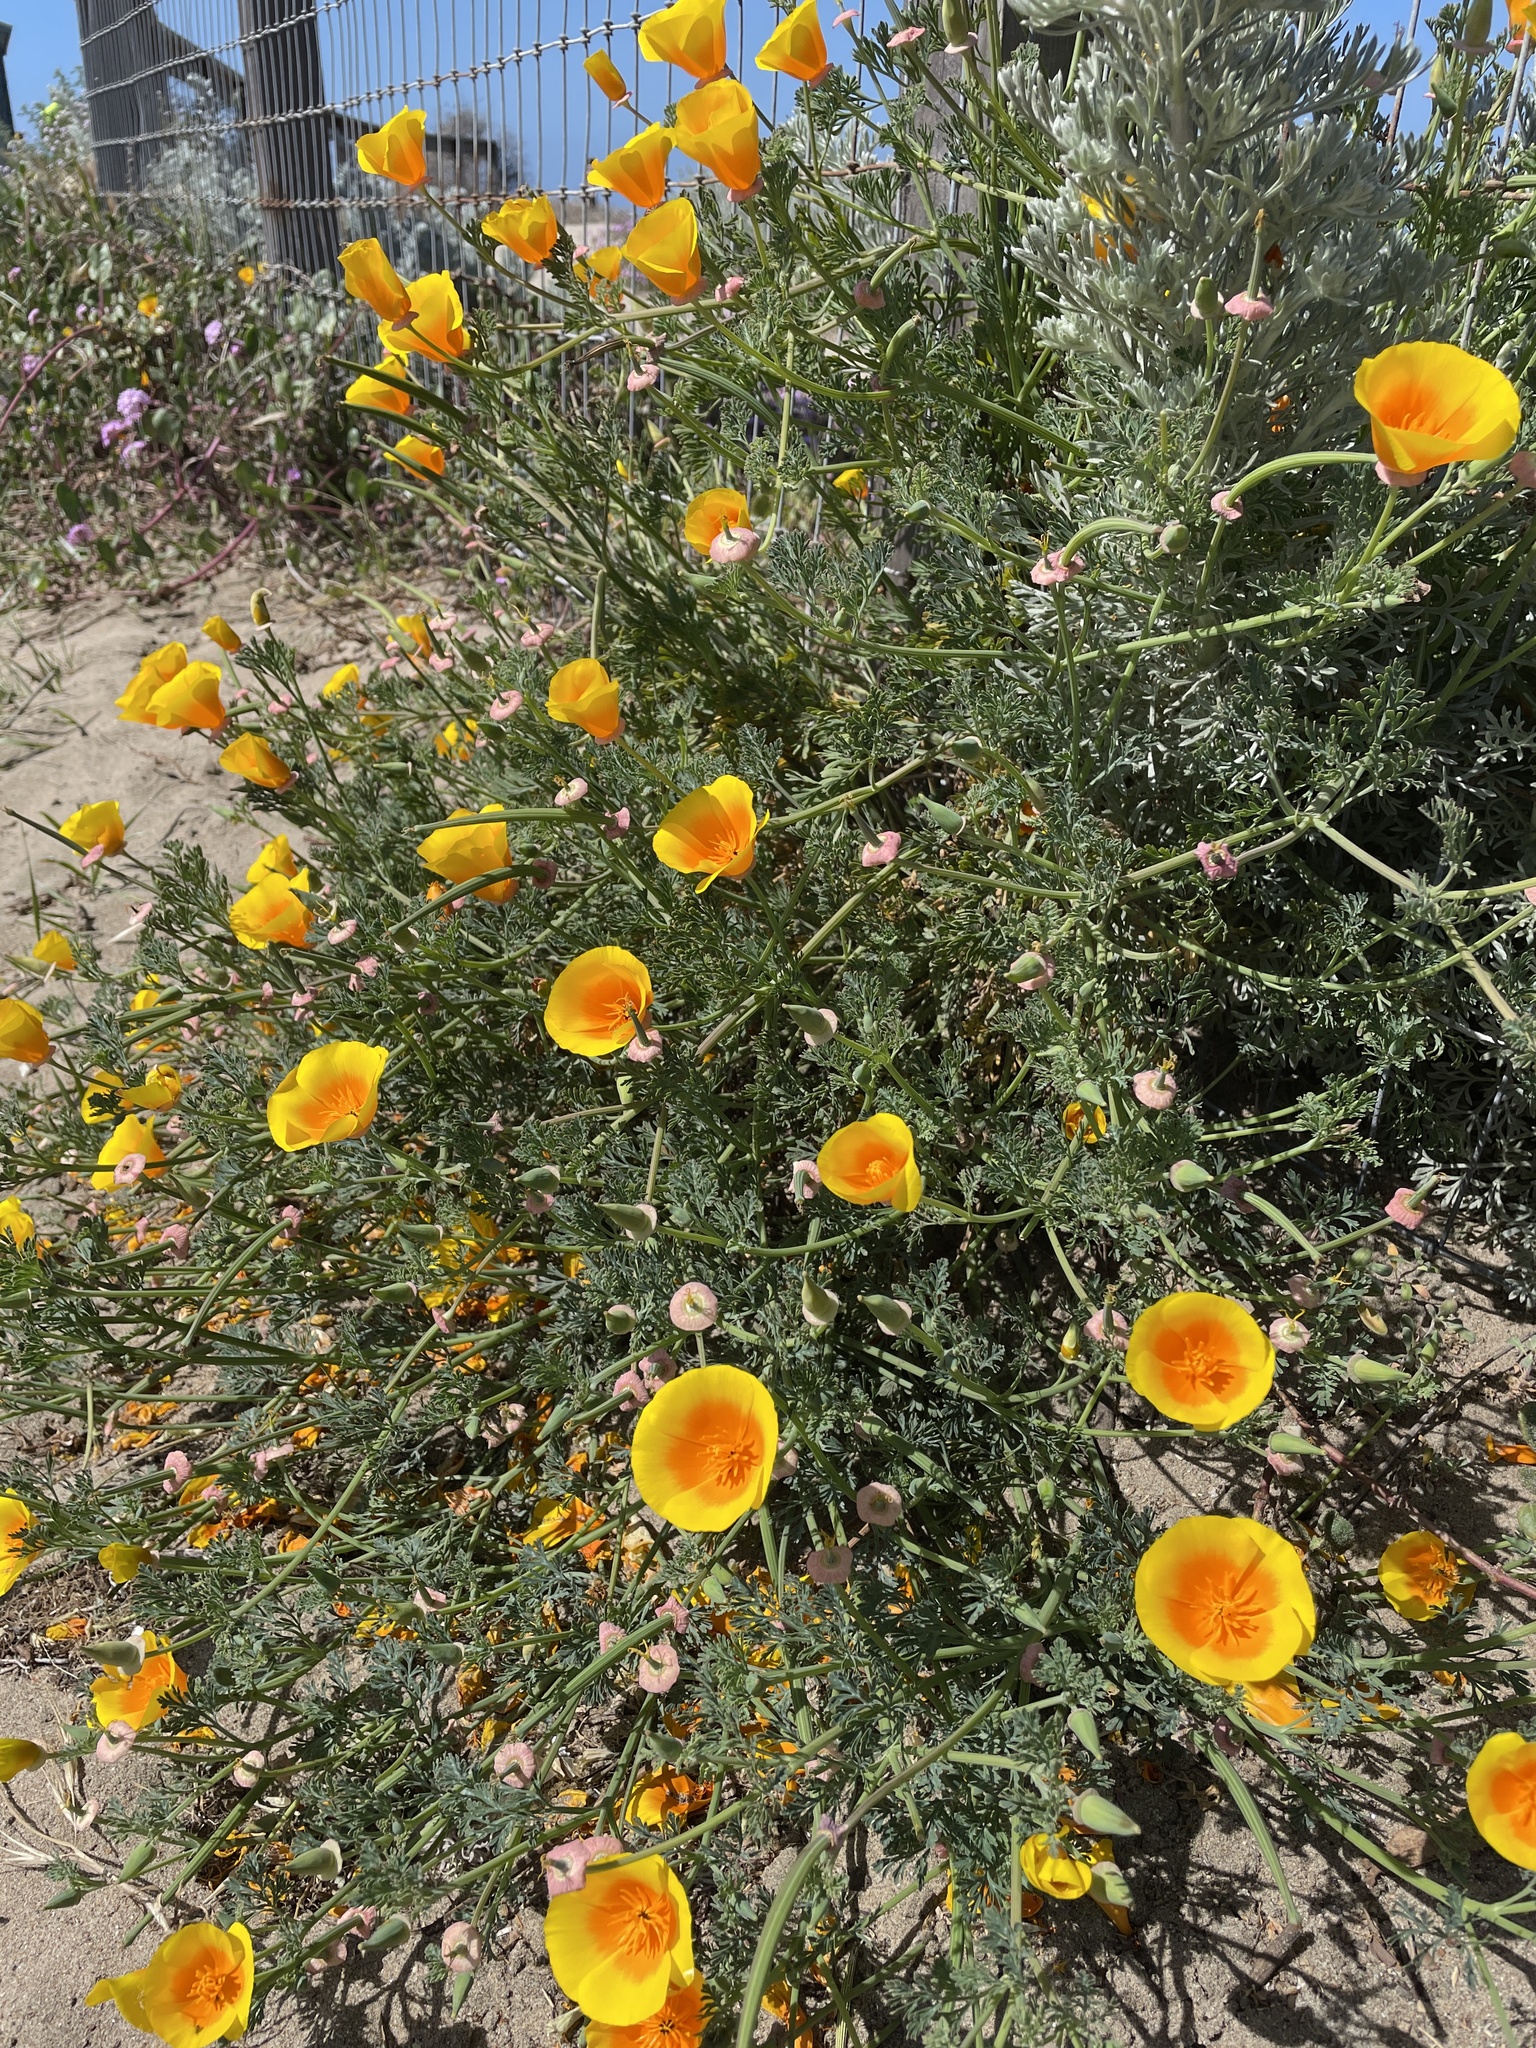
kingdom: Plantae
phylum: Tracheophyta
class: Magnoliopsida
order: Ranunculales
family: Papaveraceae
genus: Eschscholzia
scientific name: Eschscholzia californica
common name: California poppy
